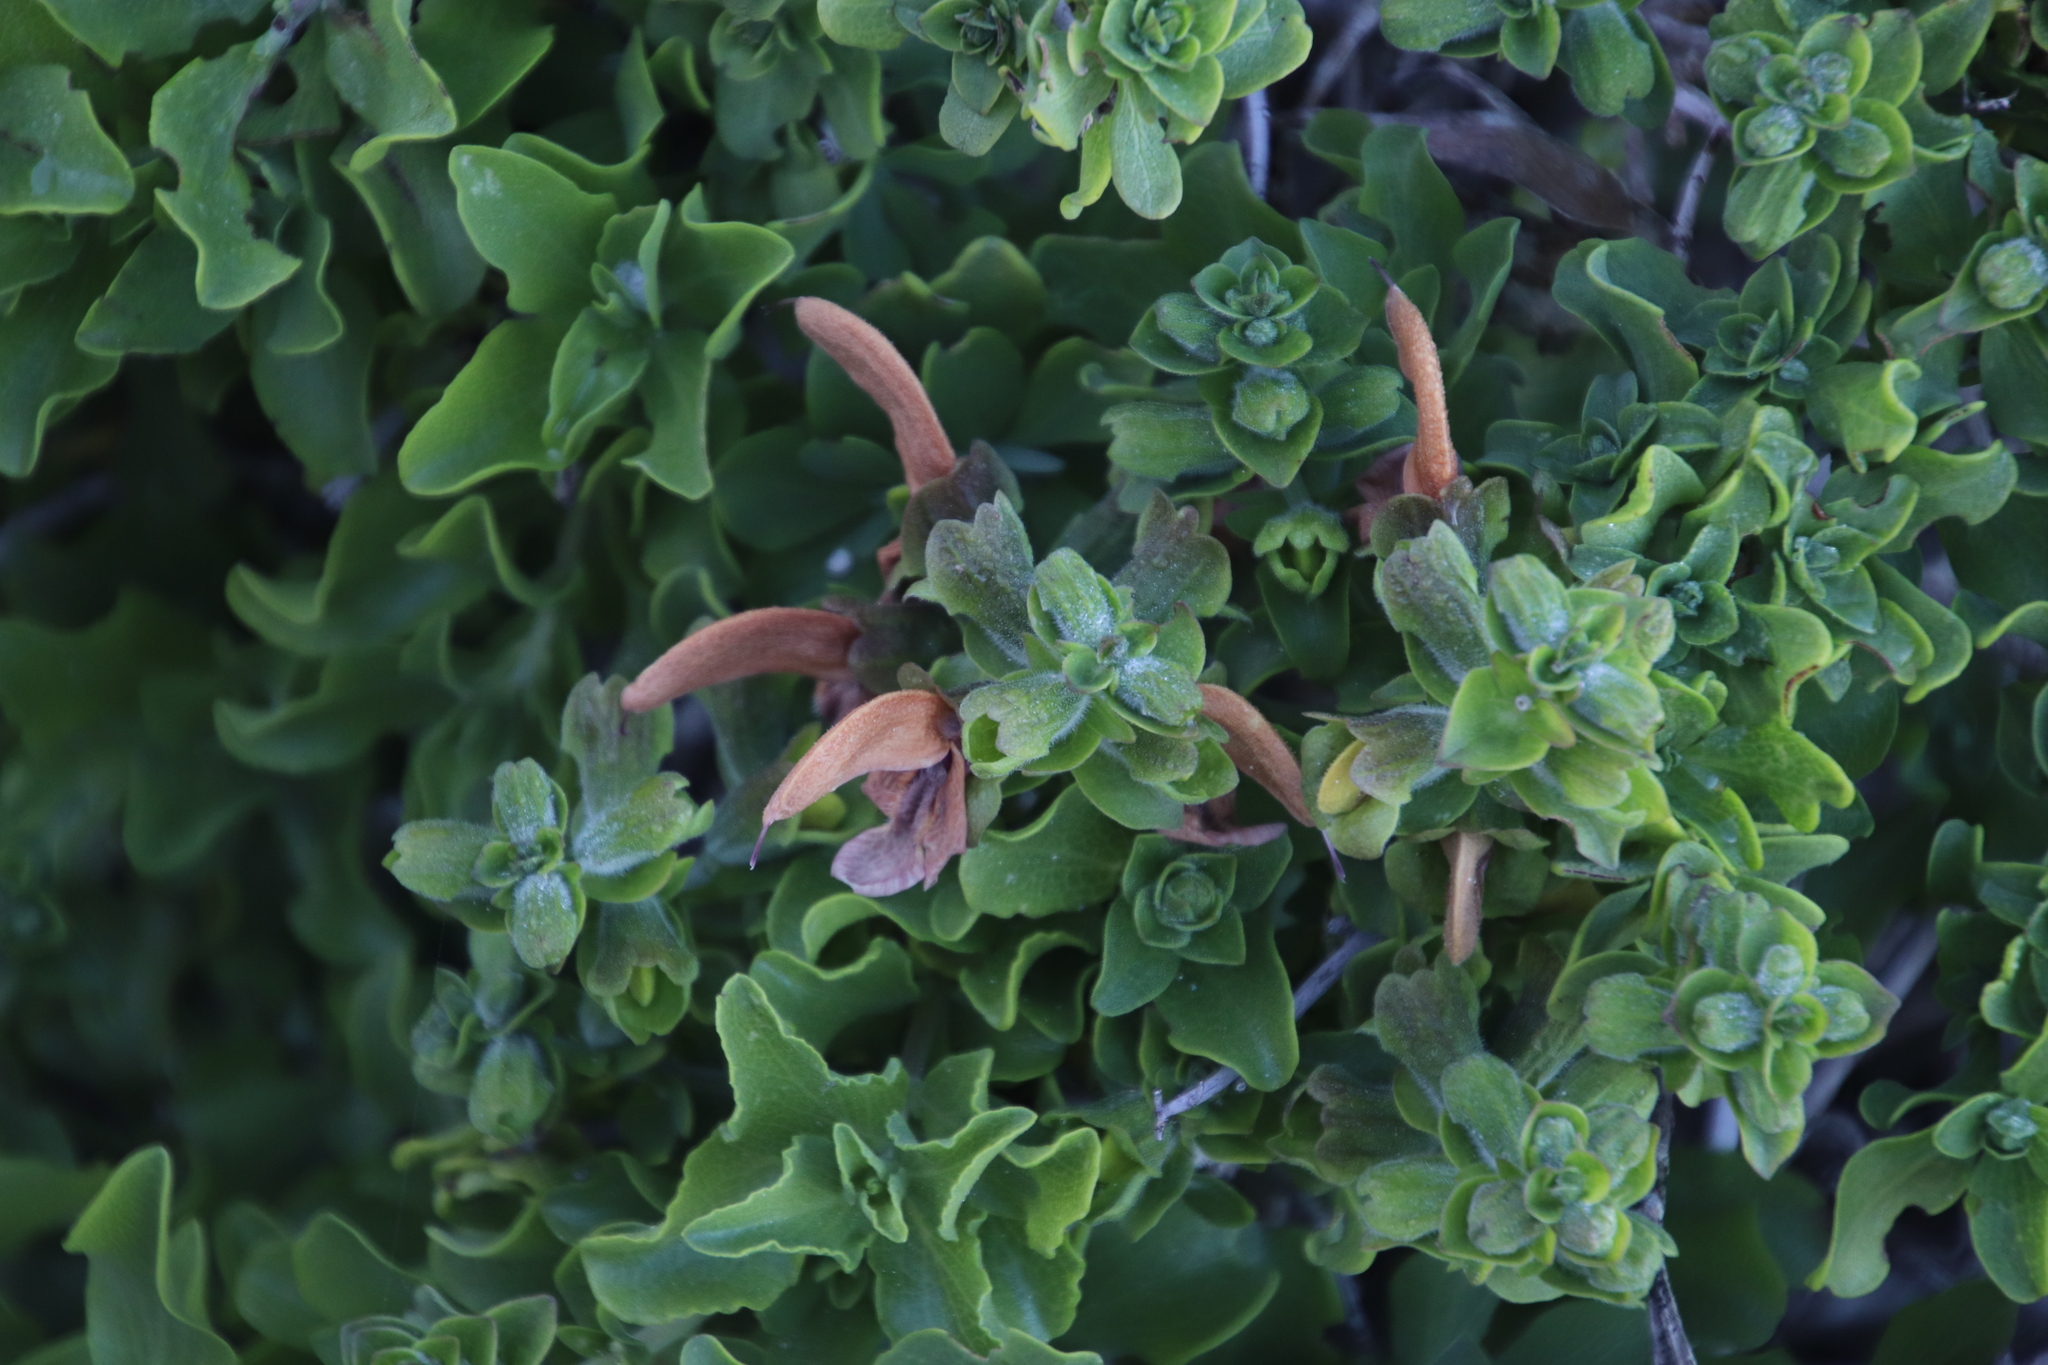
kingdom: Plantae
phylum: Tracheophyta
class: Magnoliopsida
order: Lamiales
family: Lamiaceae
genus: Salvia
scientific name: Salvia aurea
